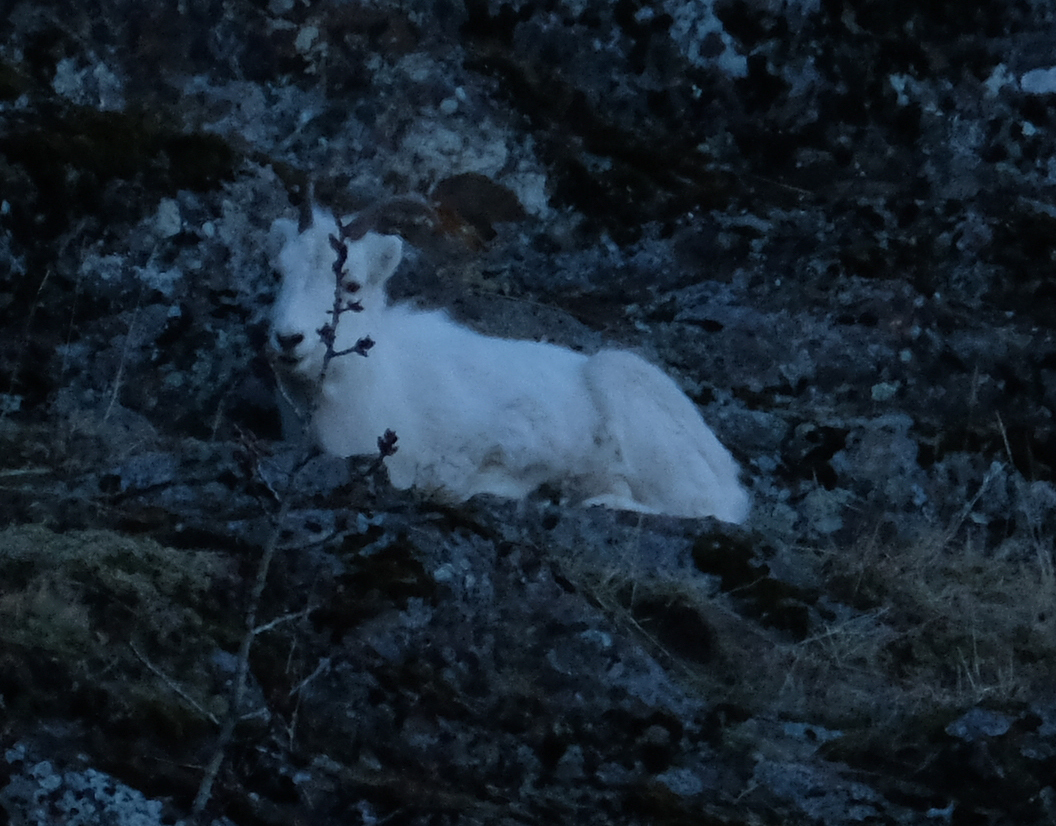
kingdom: Animalia
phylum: Chordata
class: Mammalia
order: Artiodactyla
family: Bovidae
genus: Ovis
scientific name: Ovis dalli
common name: Dall's sheep
